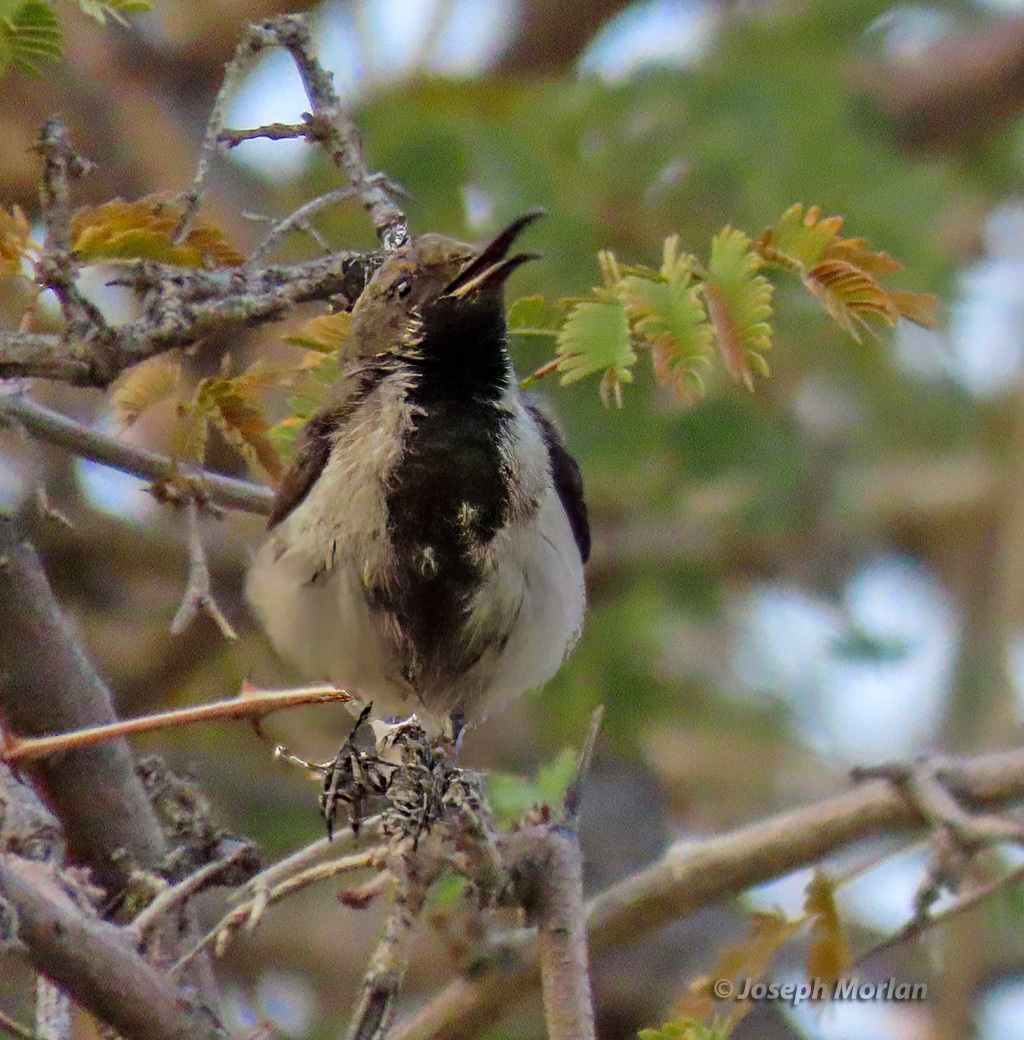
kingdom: Animalia
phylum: Chordata
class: Aves
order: Passeriformes
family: Nectariniidae
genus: Cinnyris
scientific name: Cinnyris fuscus
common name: Dusky sunbird
